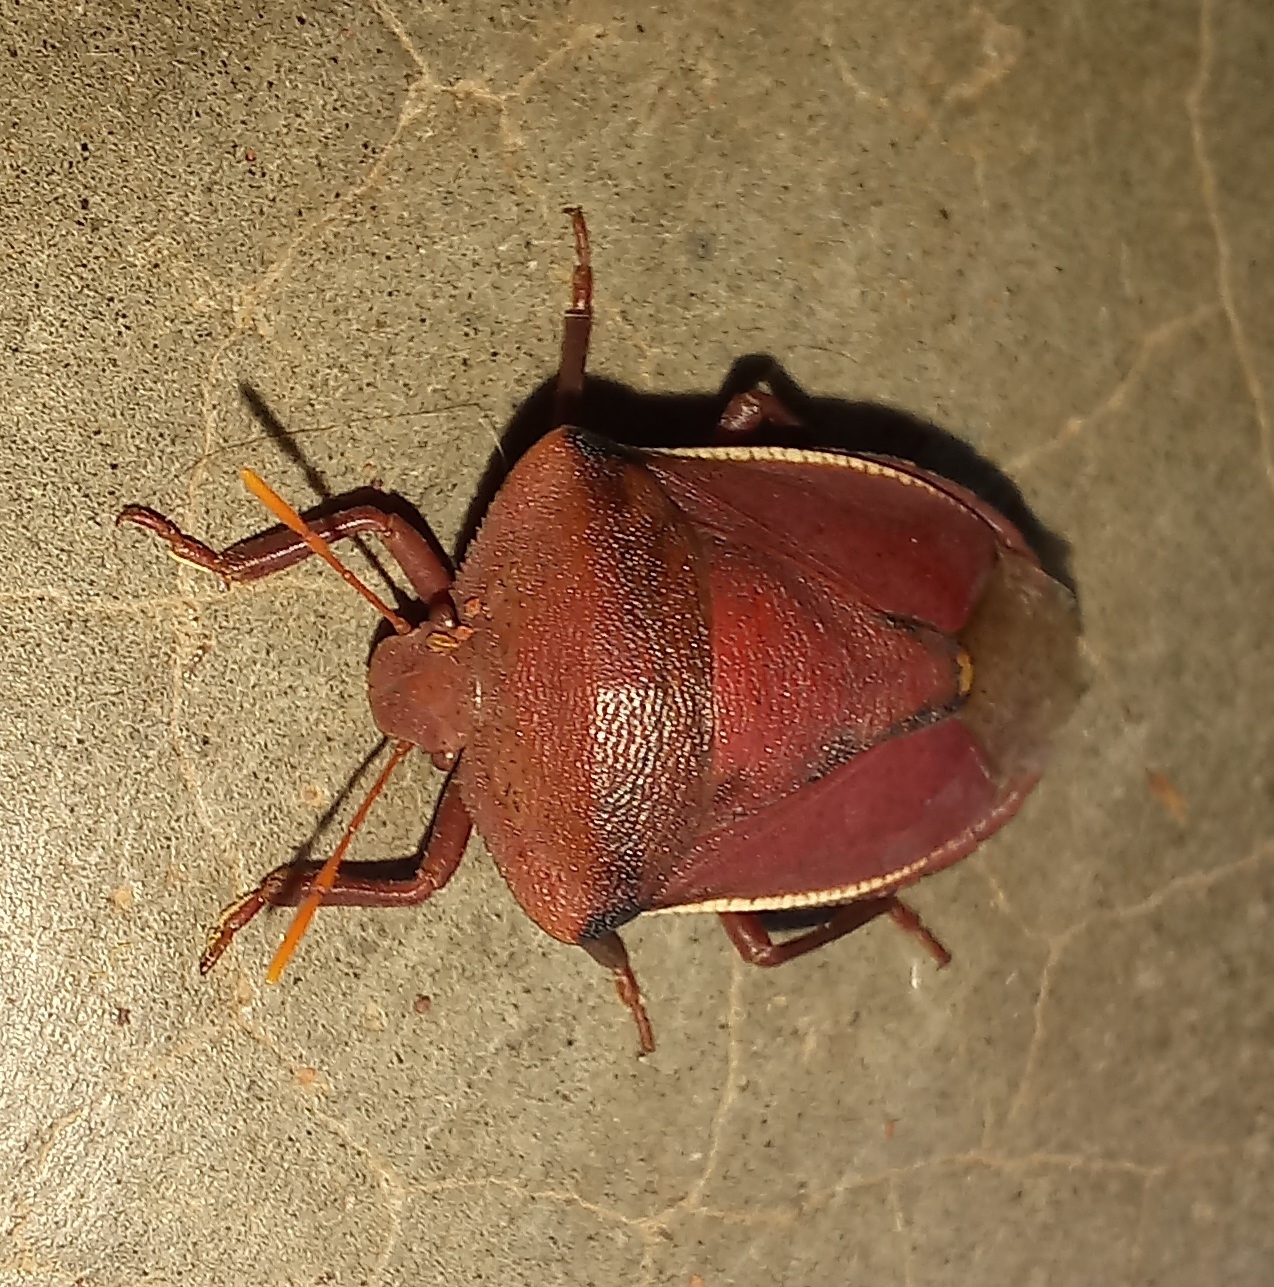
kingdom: Animalia
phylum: Arthropoda
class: Insecta
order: Hemiptera
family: Pentatomidae
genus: Basicryptus
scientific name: Basicryptus costalis
